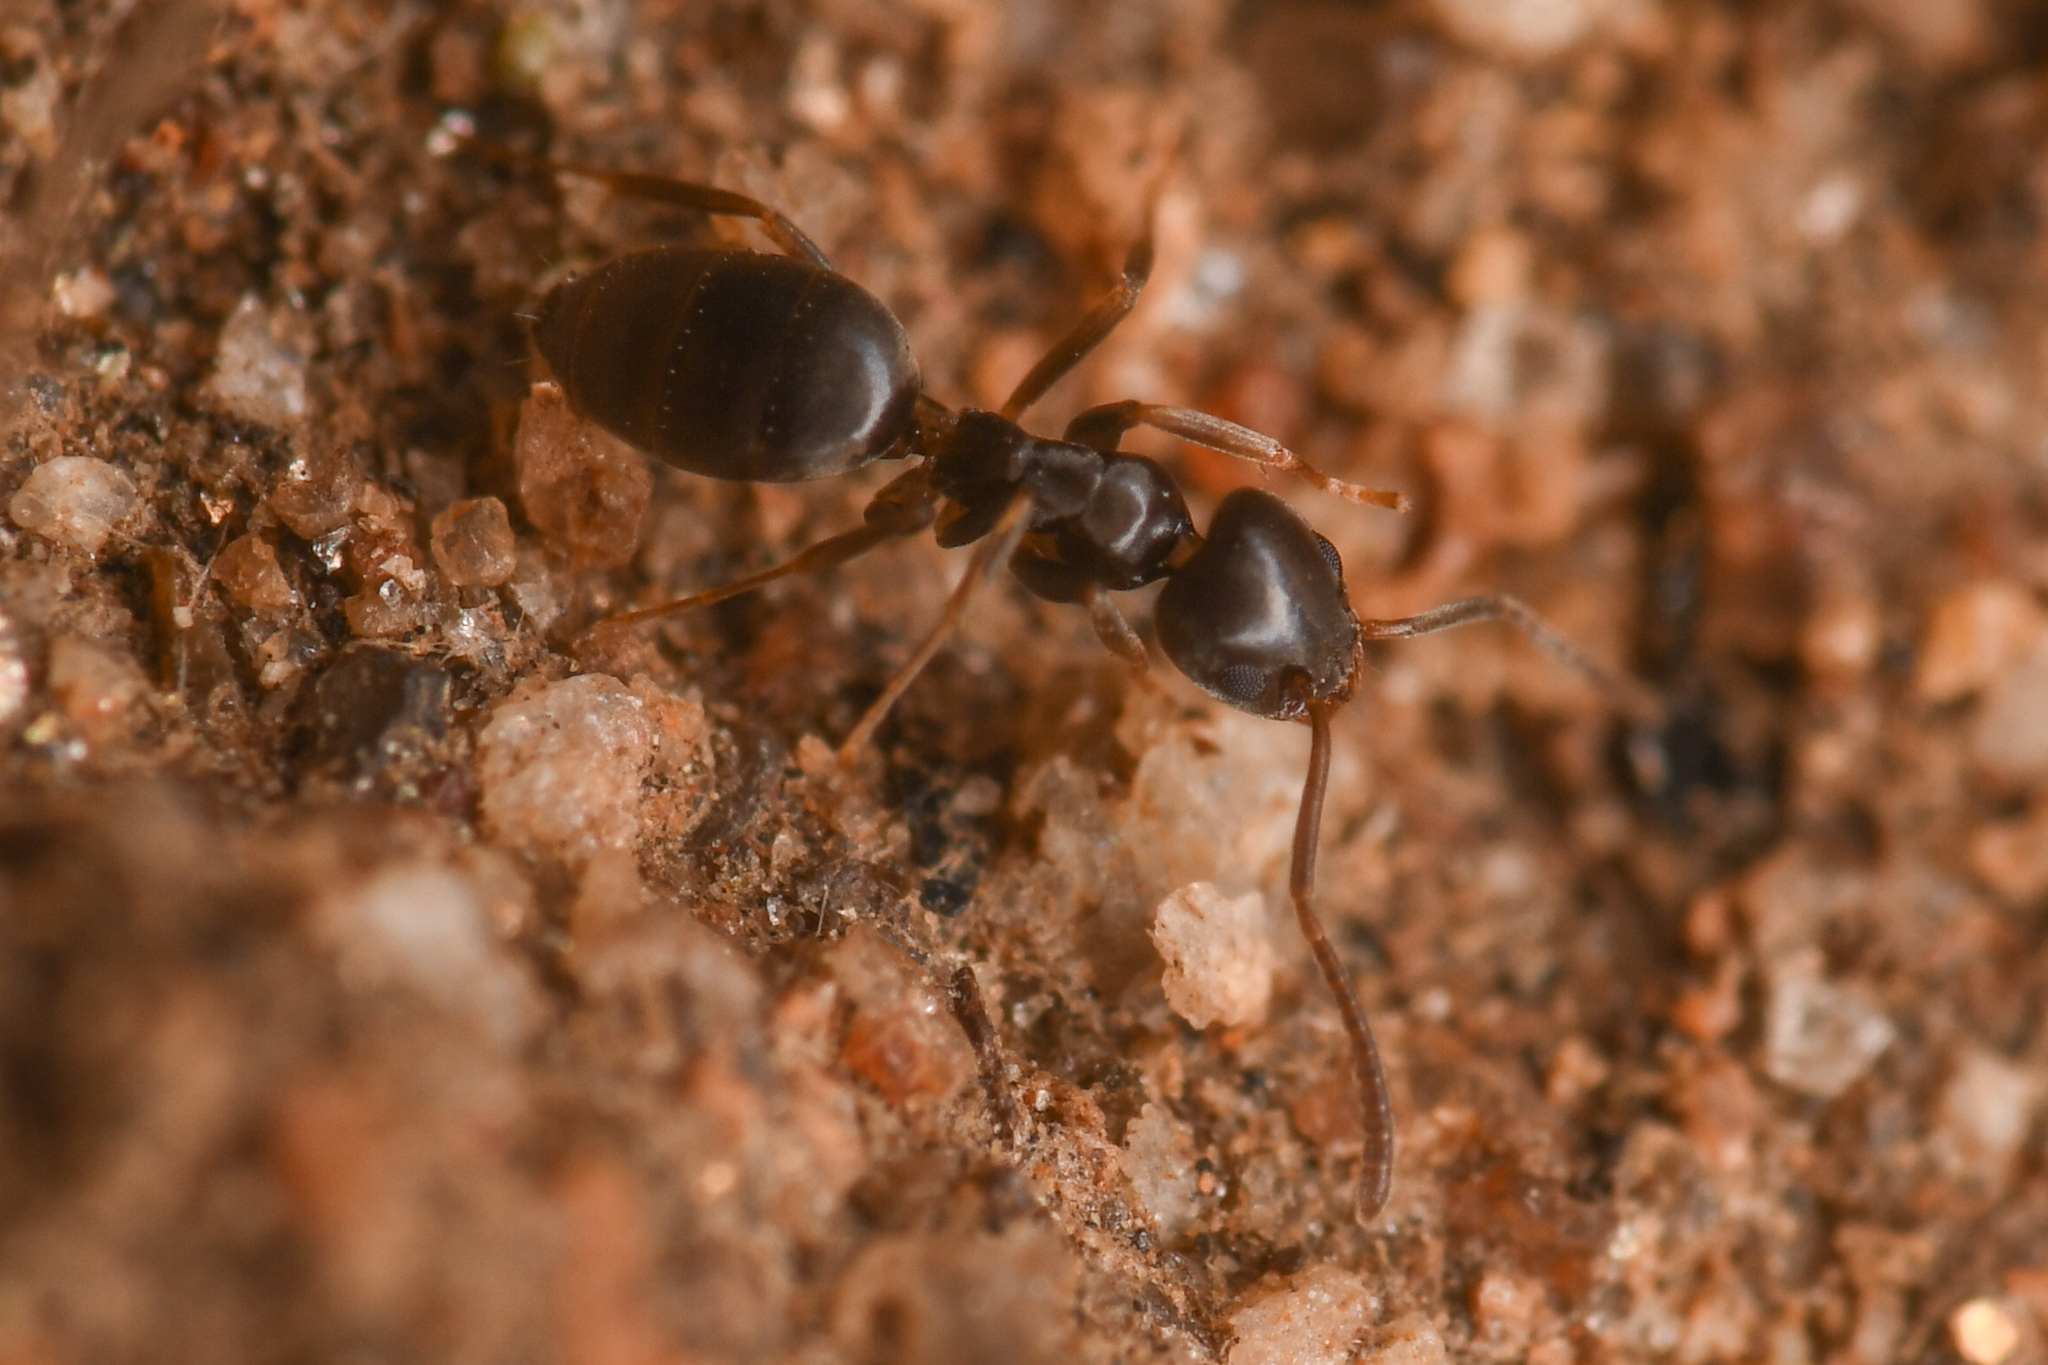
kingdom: Animalia
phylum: Arthropoda
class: Insecta
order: Hymenoptera
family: Formicidae
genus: Tapinoma
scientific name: Tapinoma sessile
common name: Odorous house ant
